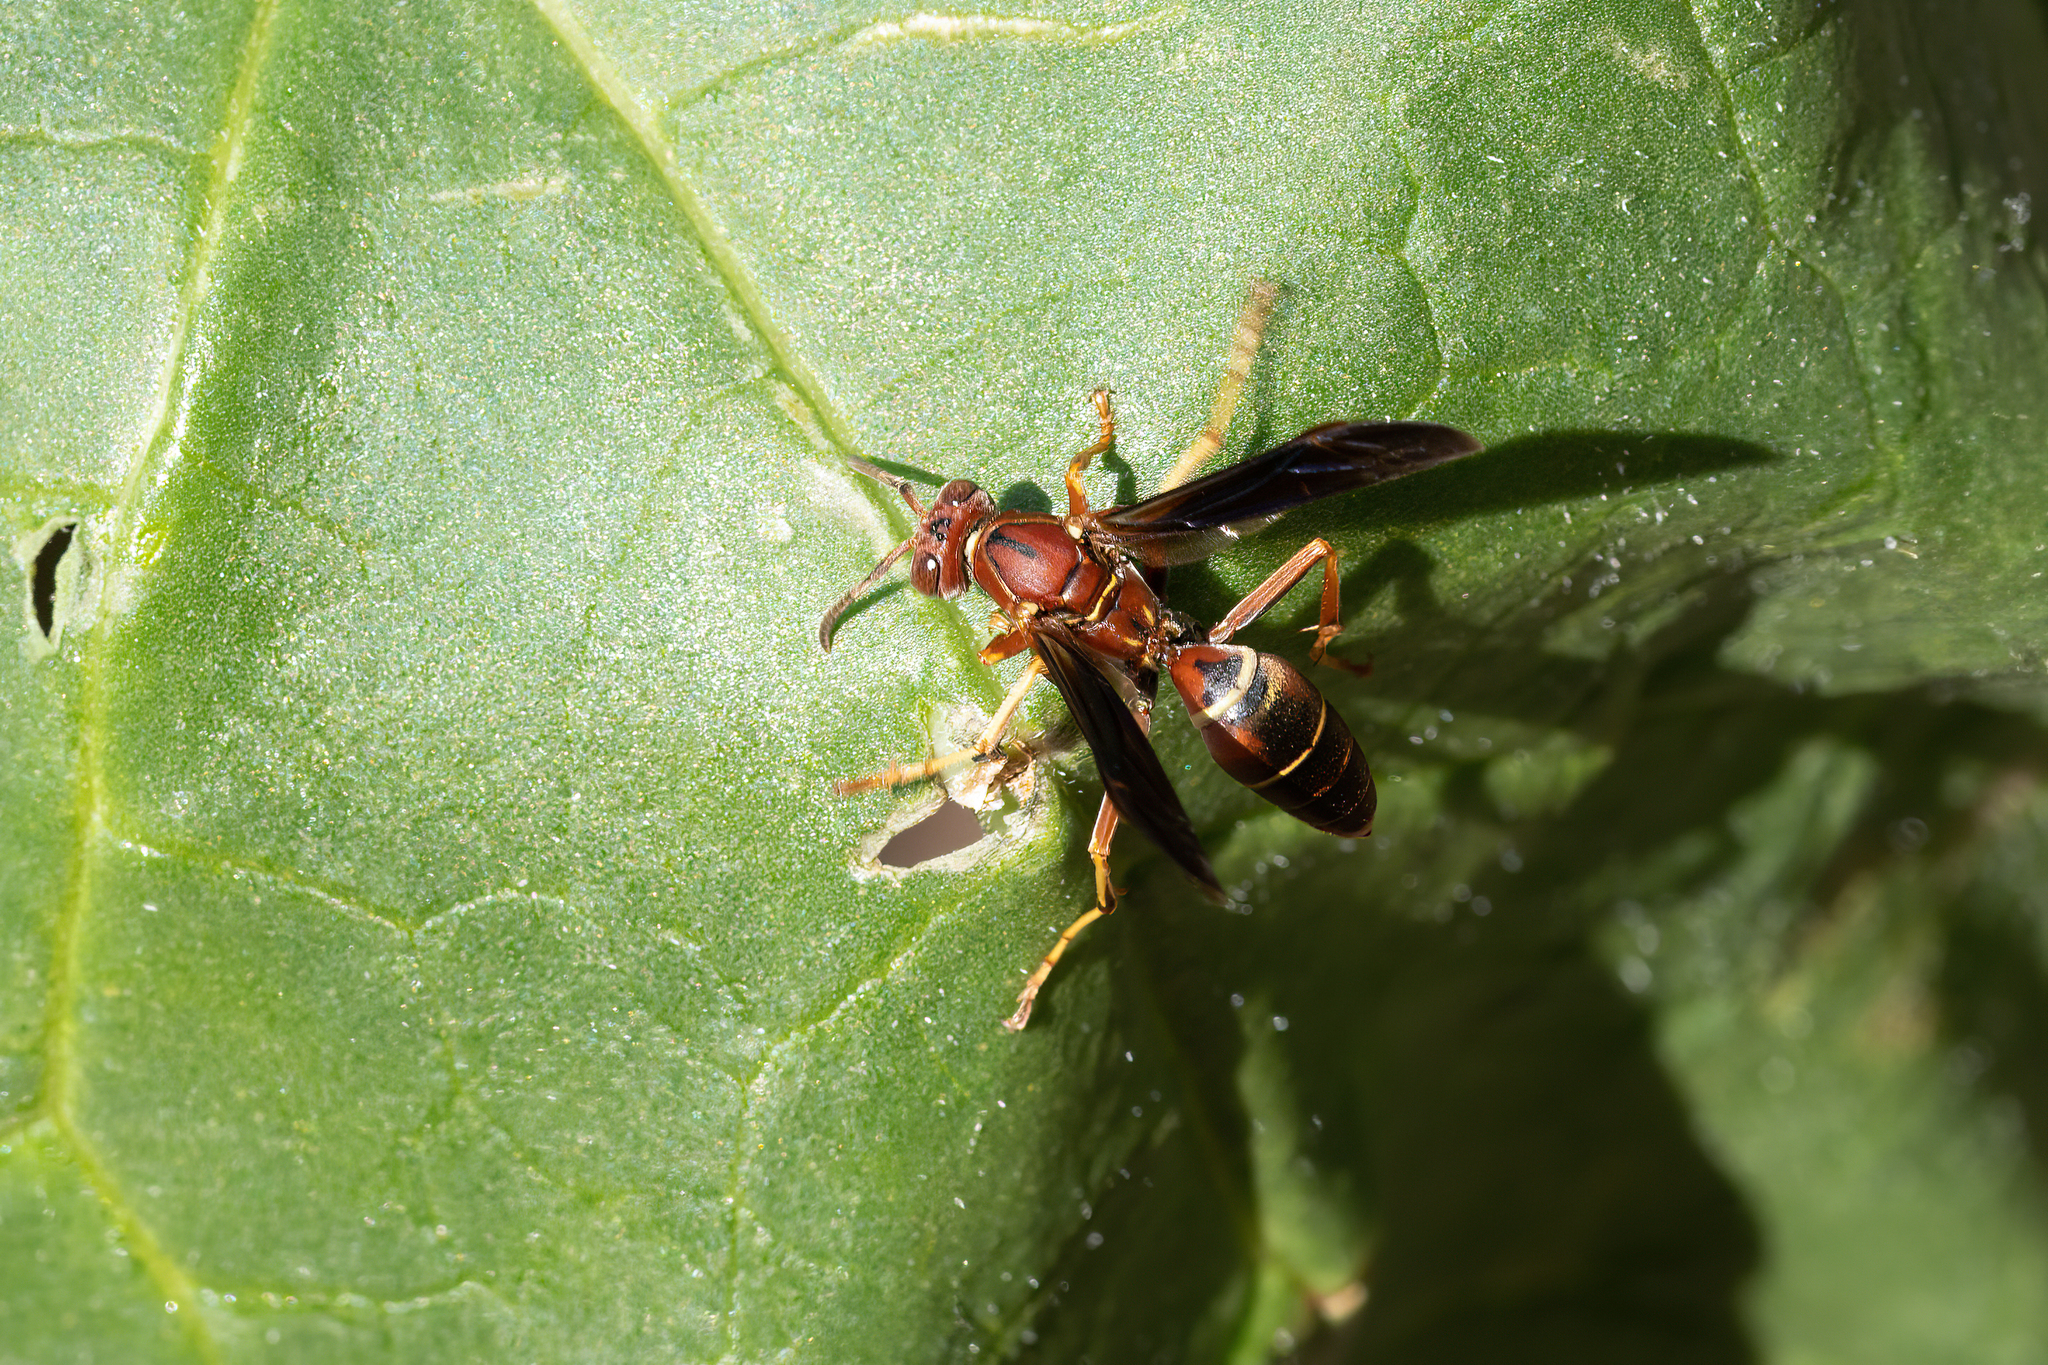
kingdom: Animalia
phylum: Arthropoda
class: Insecta
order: Hymenoptera
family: Eumenidae
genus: Polistes
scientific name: Polistes fuscatus
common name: Dark paper wasp
